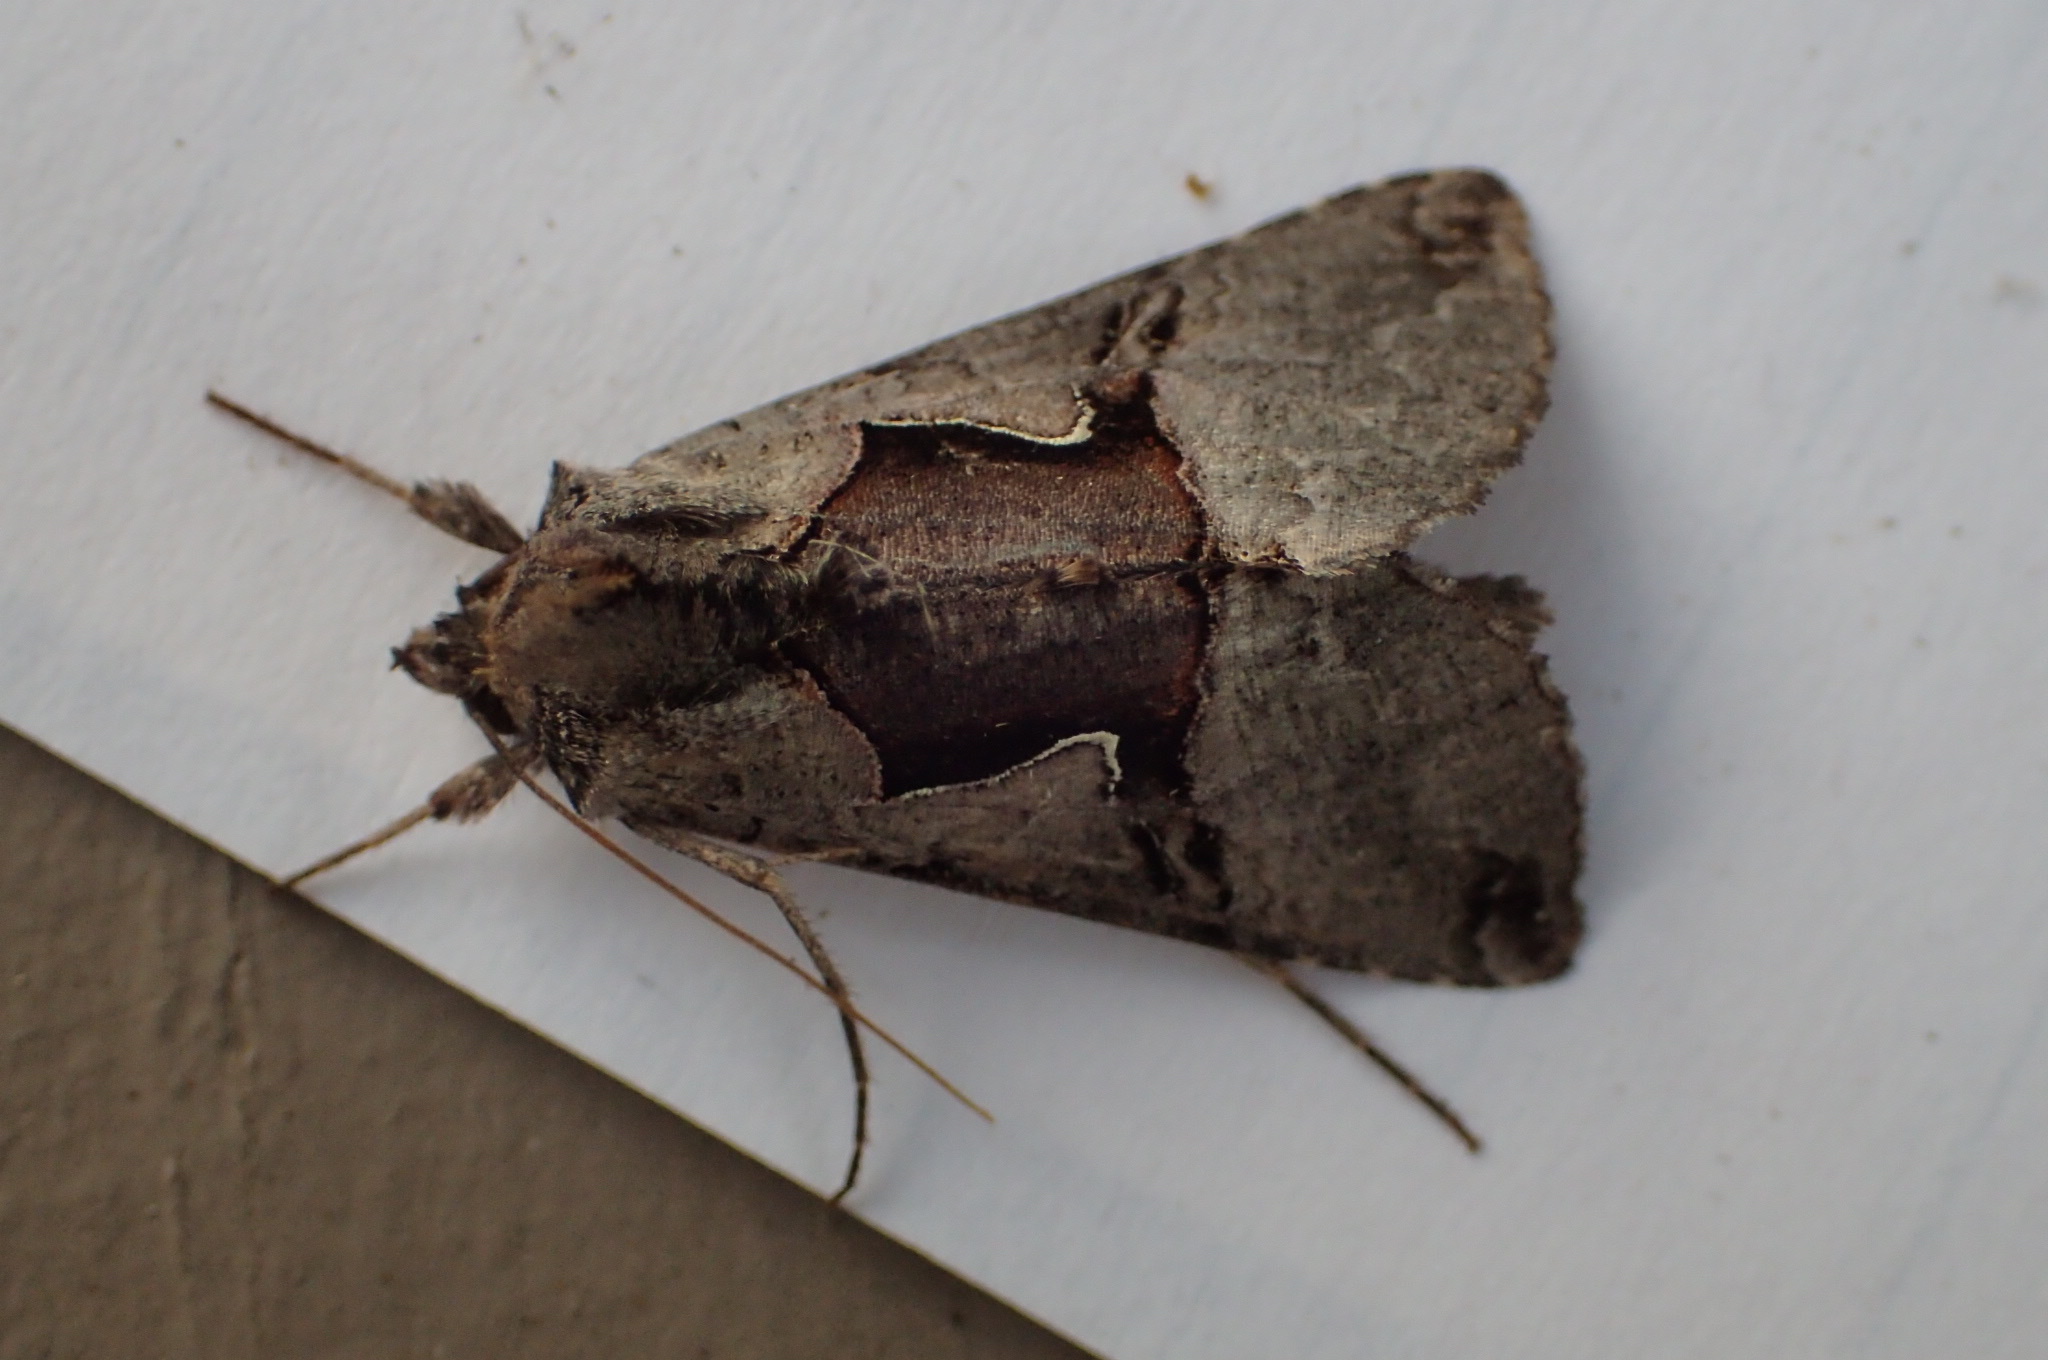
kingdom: Animalia
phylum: Arthropoda
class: Insecta
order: Lepidoptera
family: Noctuidae
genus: Autographa
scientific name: Autographa ampla
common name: Large looper moth
